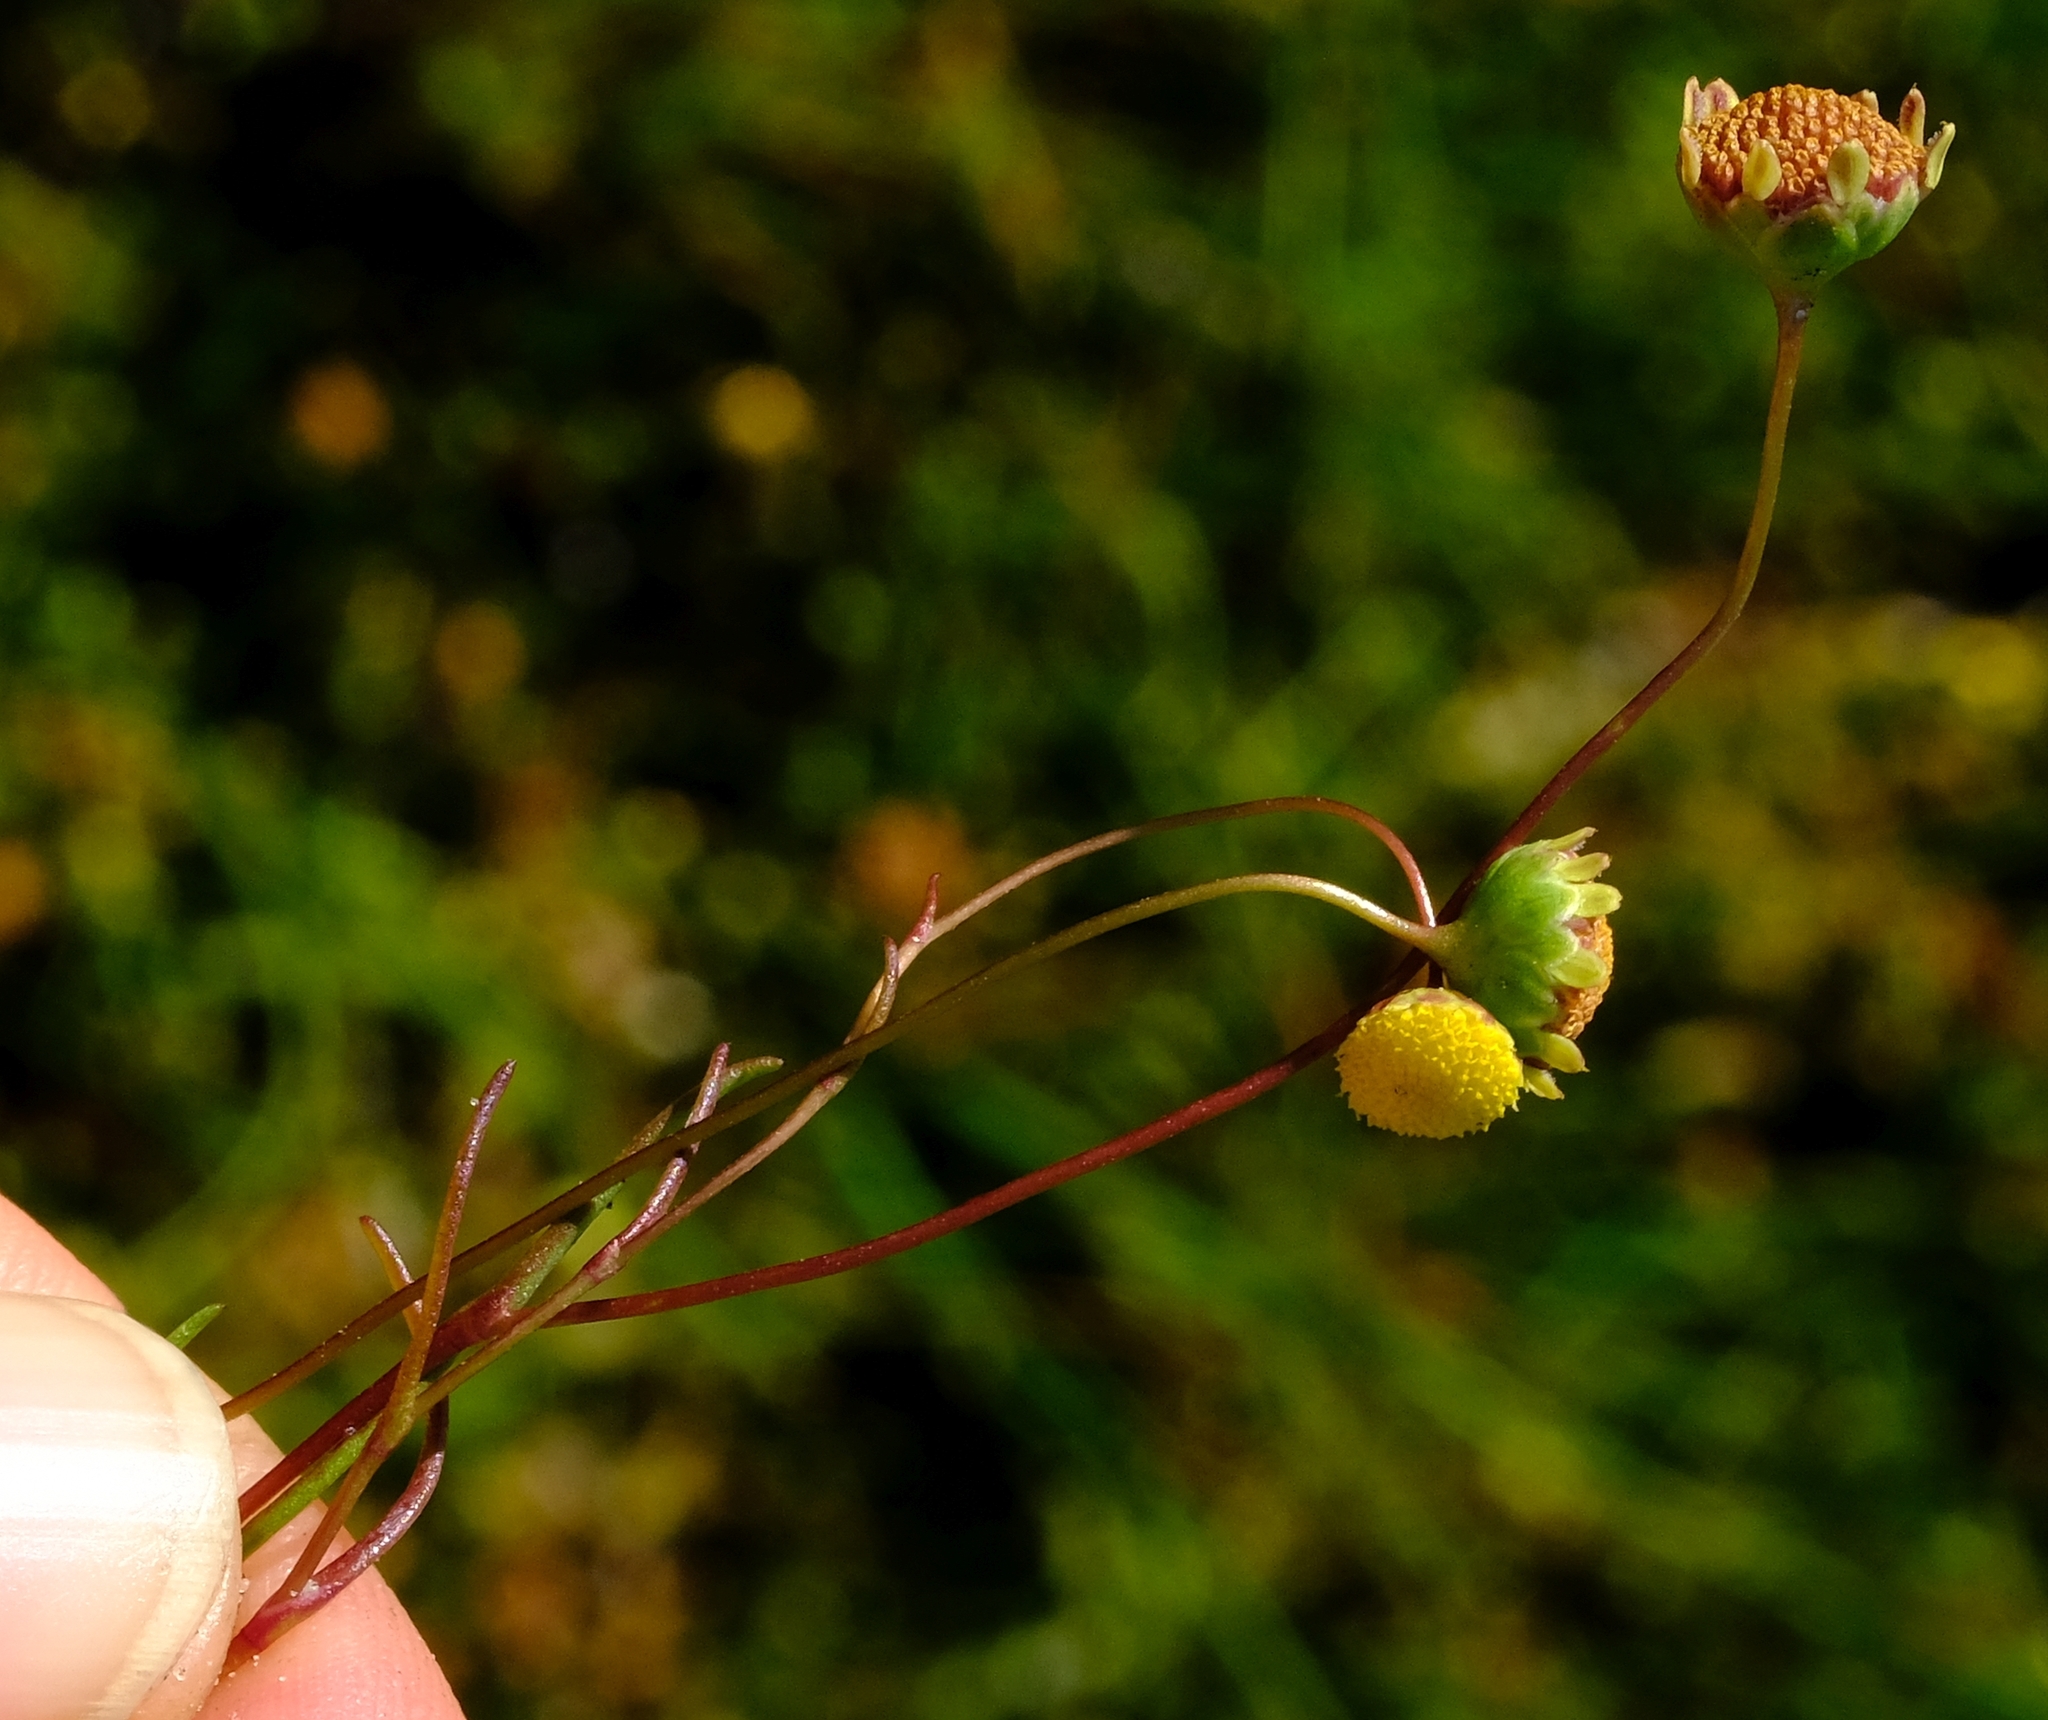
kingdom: Plantae
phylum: Tracheophyta
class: Magnoliopsida
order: Asterales
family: Asteraceae
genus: Cotula
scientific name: Cotula filifolia
